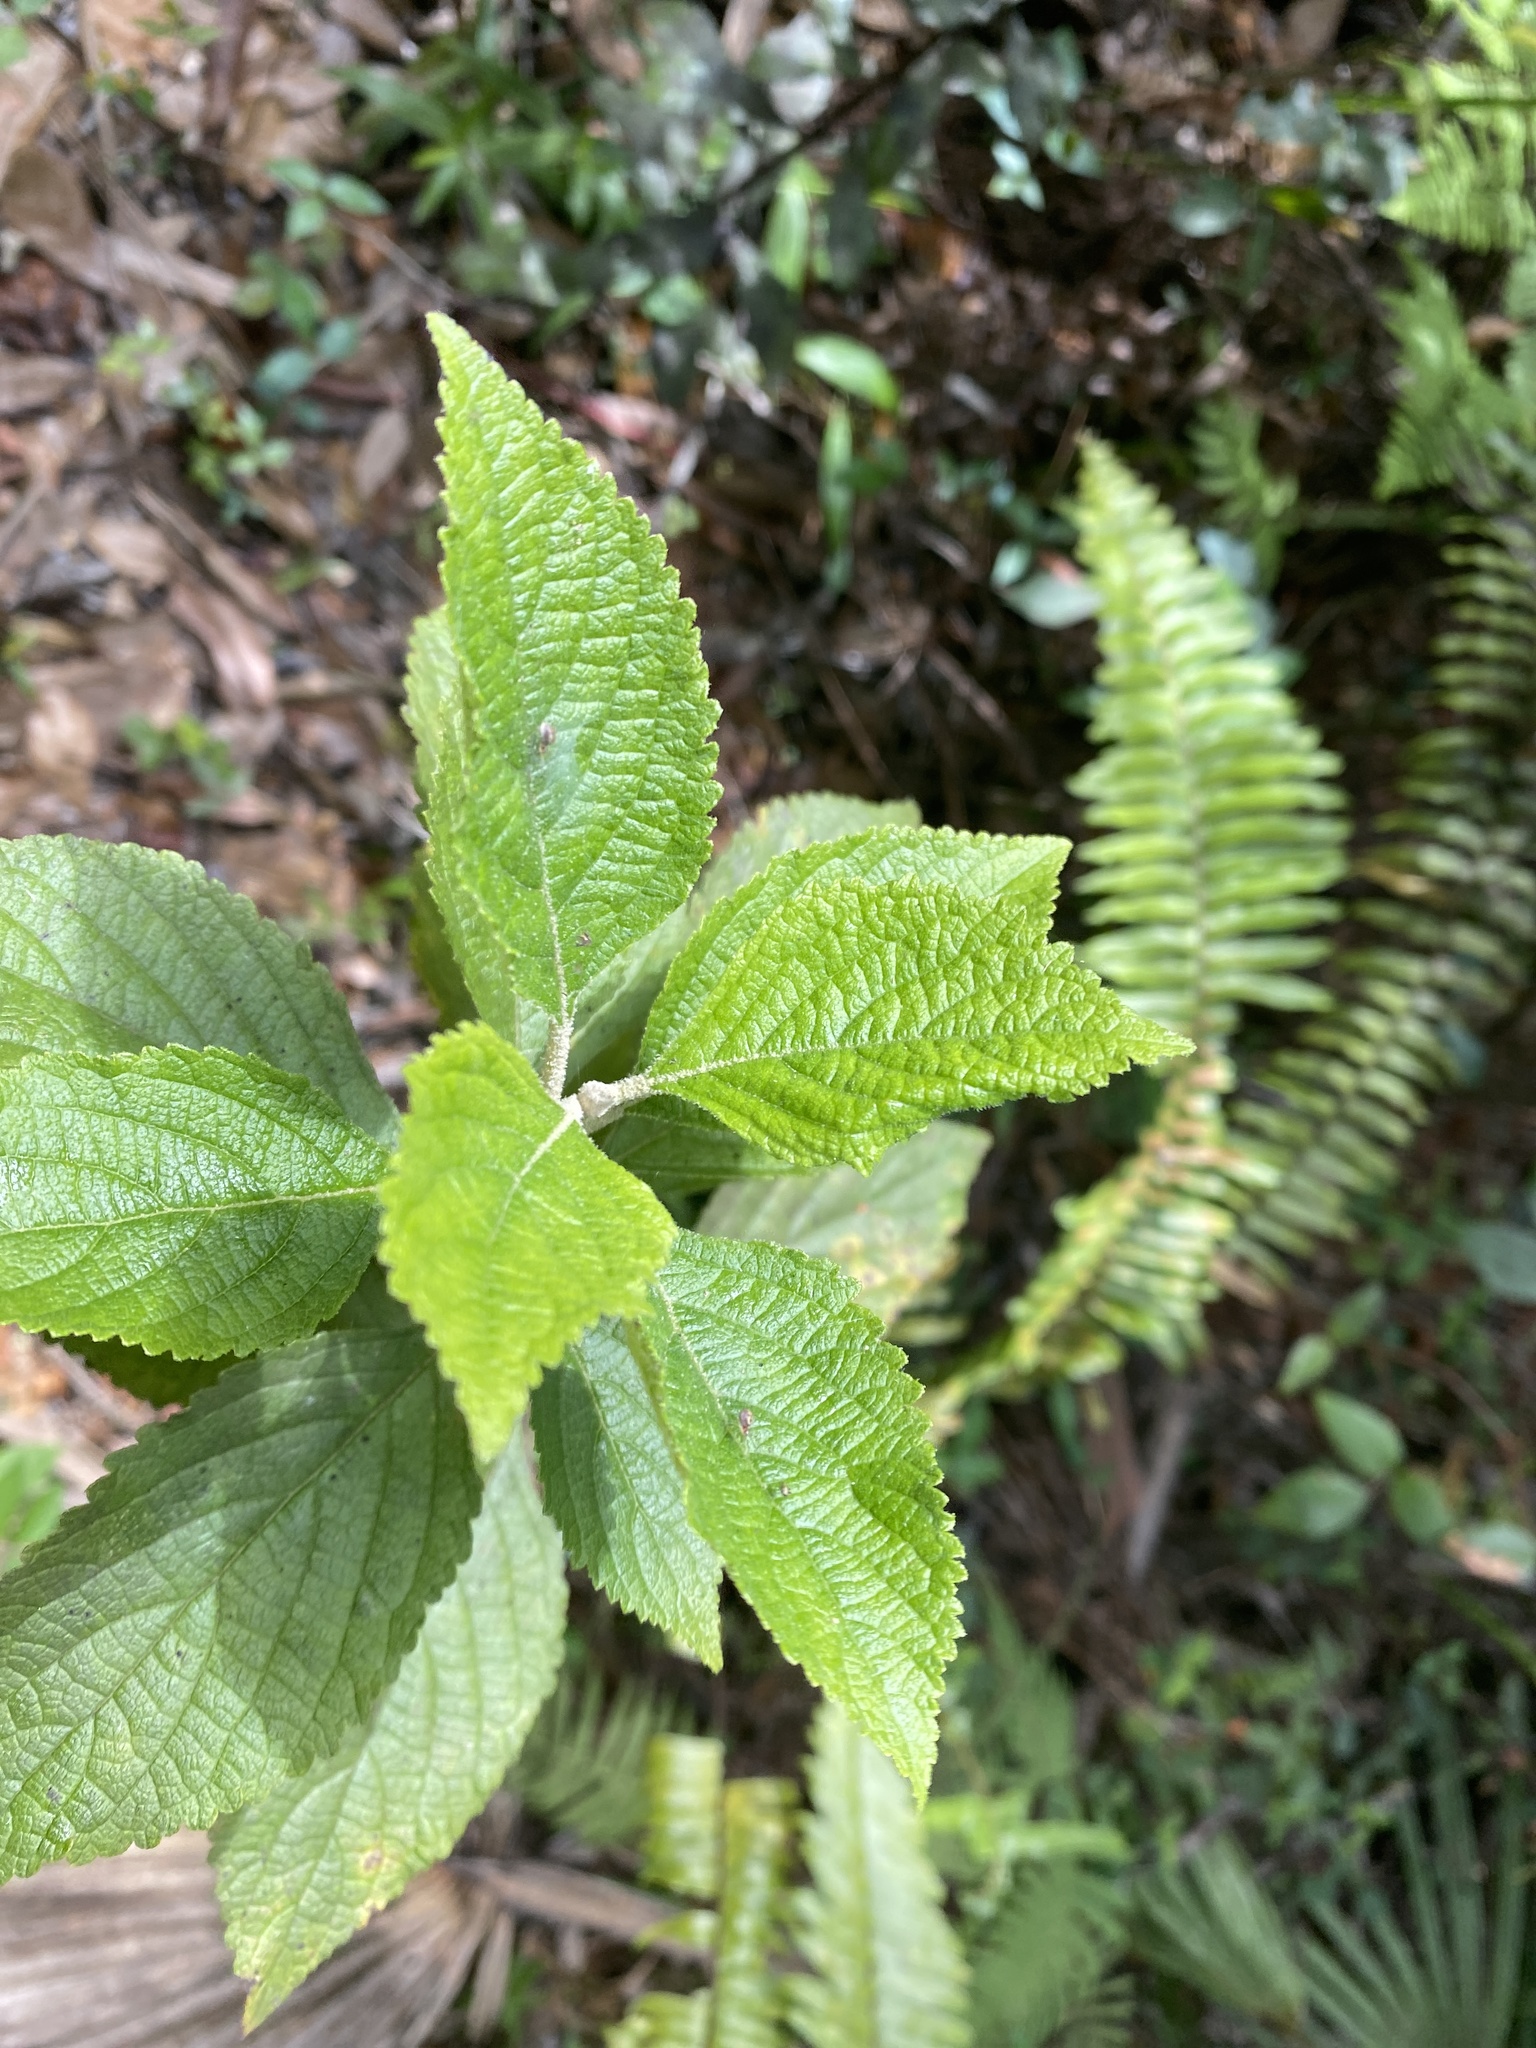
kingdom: Plantae
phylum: Tracheophyta
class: Magnoliopsida
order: Lamiales
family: Lamiaceae
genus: Callicarpa
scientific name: Callicarpa americana
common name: American beautyberry
